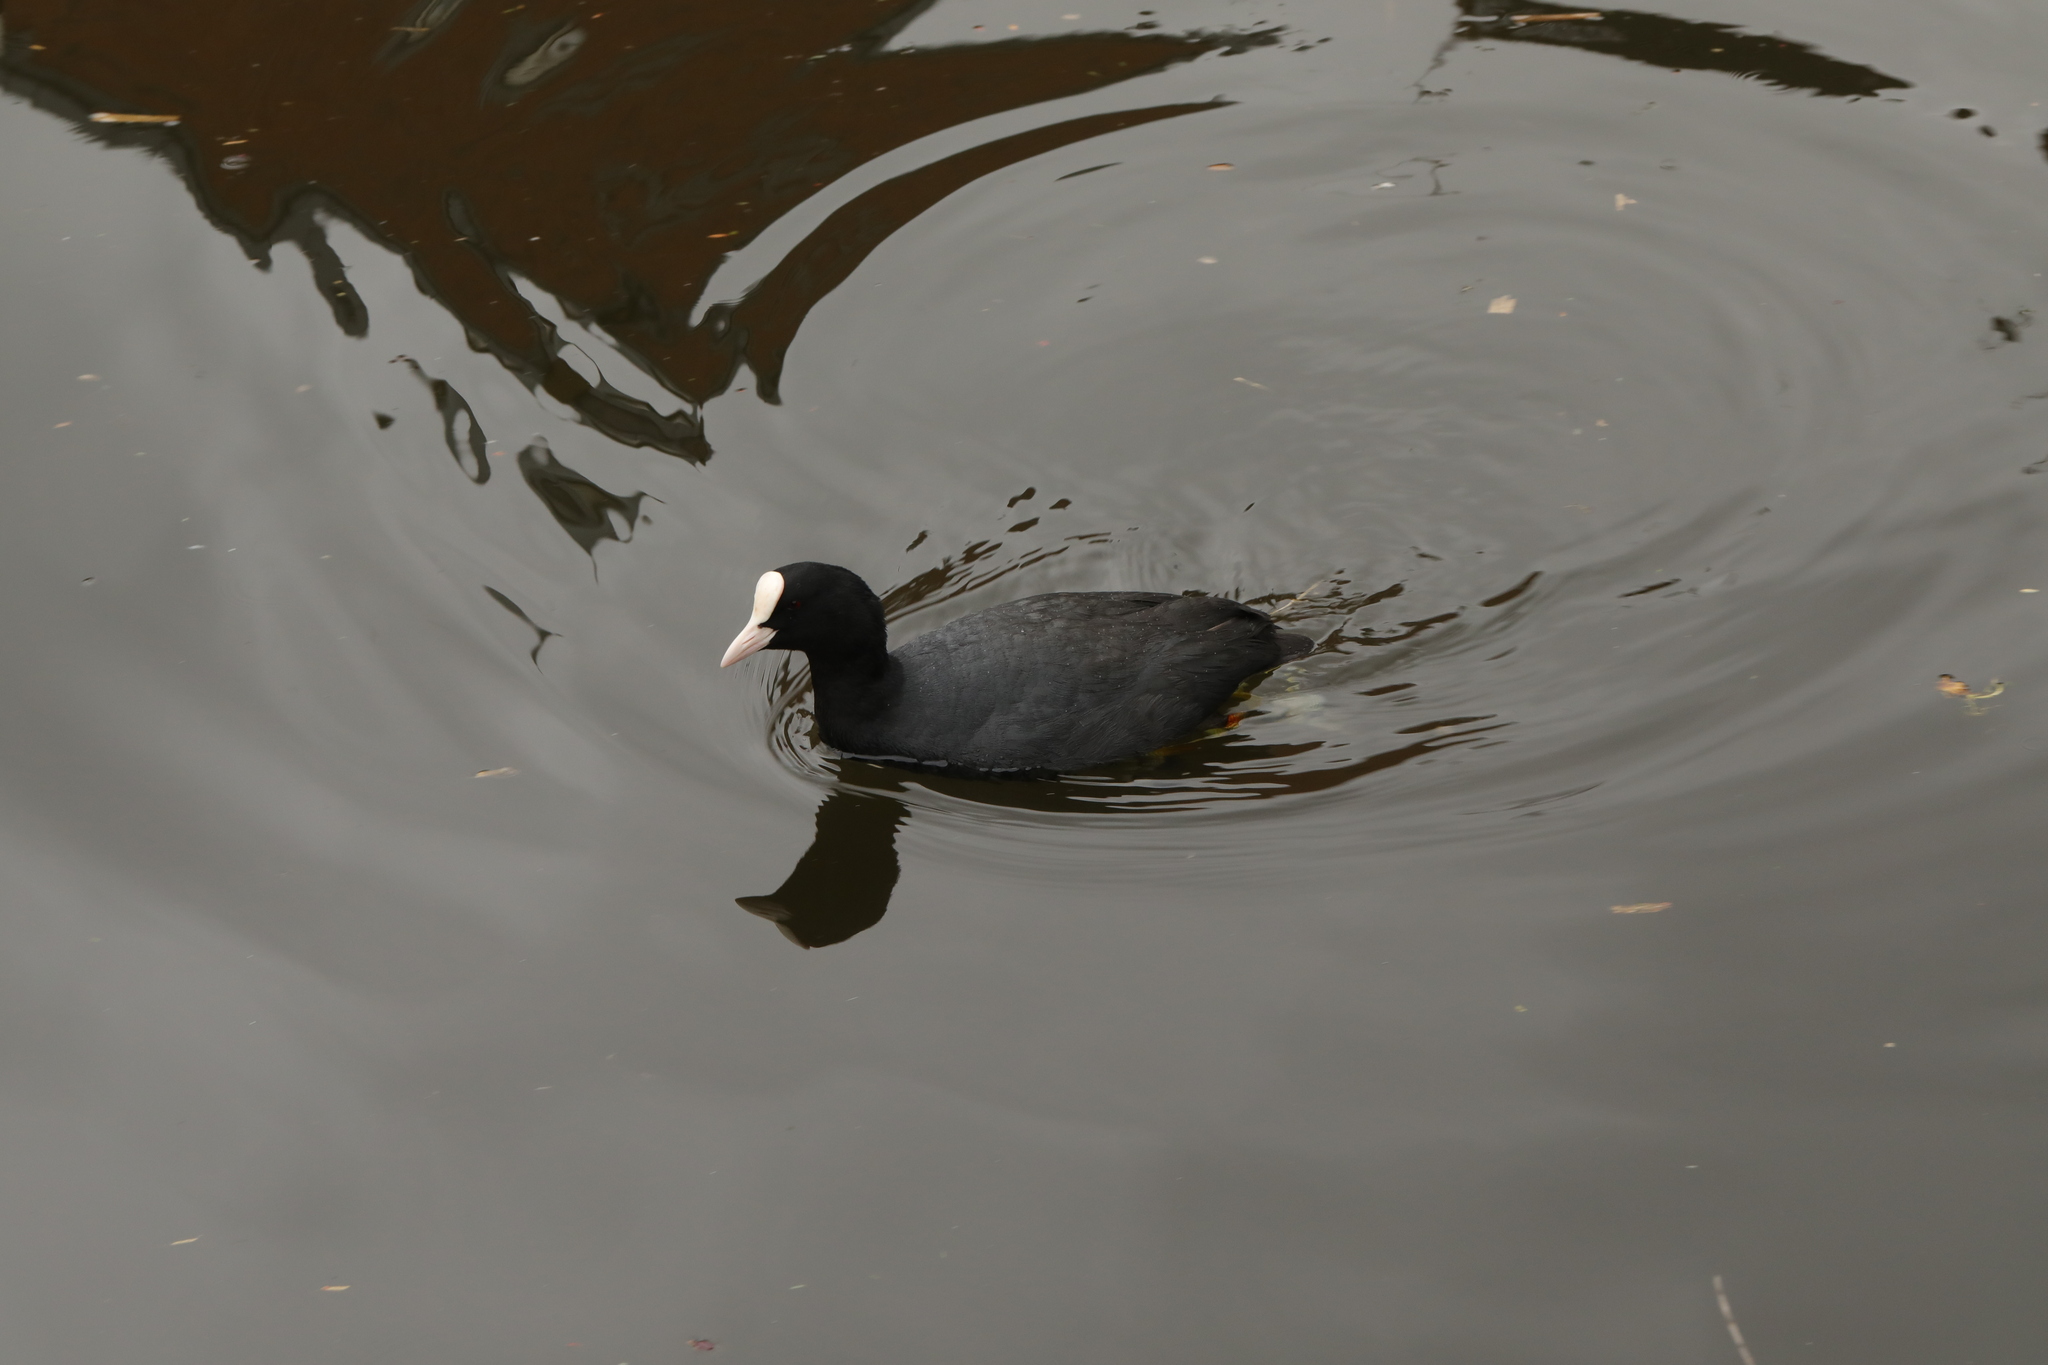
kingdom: Animalia
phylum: Chordata
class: Aves
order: Gruiformes
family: Rallidae
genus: Fulica
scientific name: Fulica atra
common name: Eurasian coot
